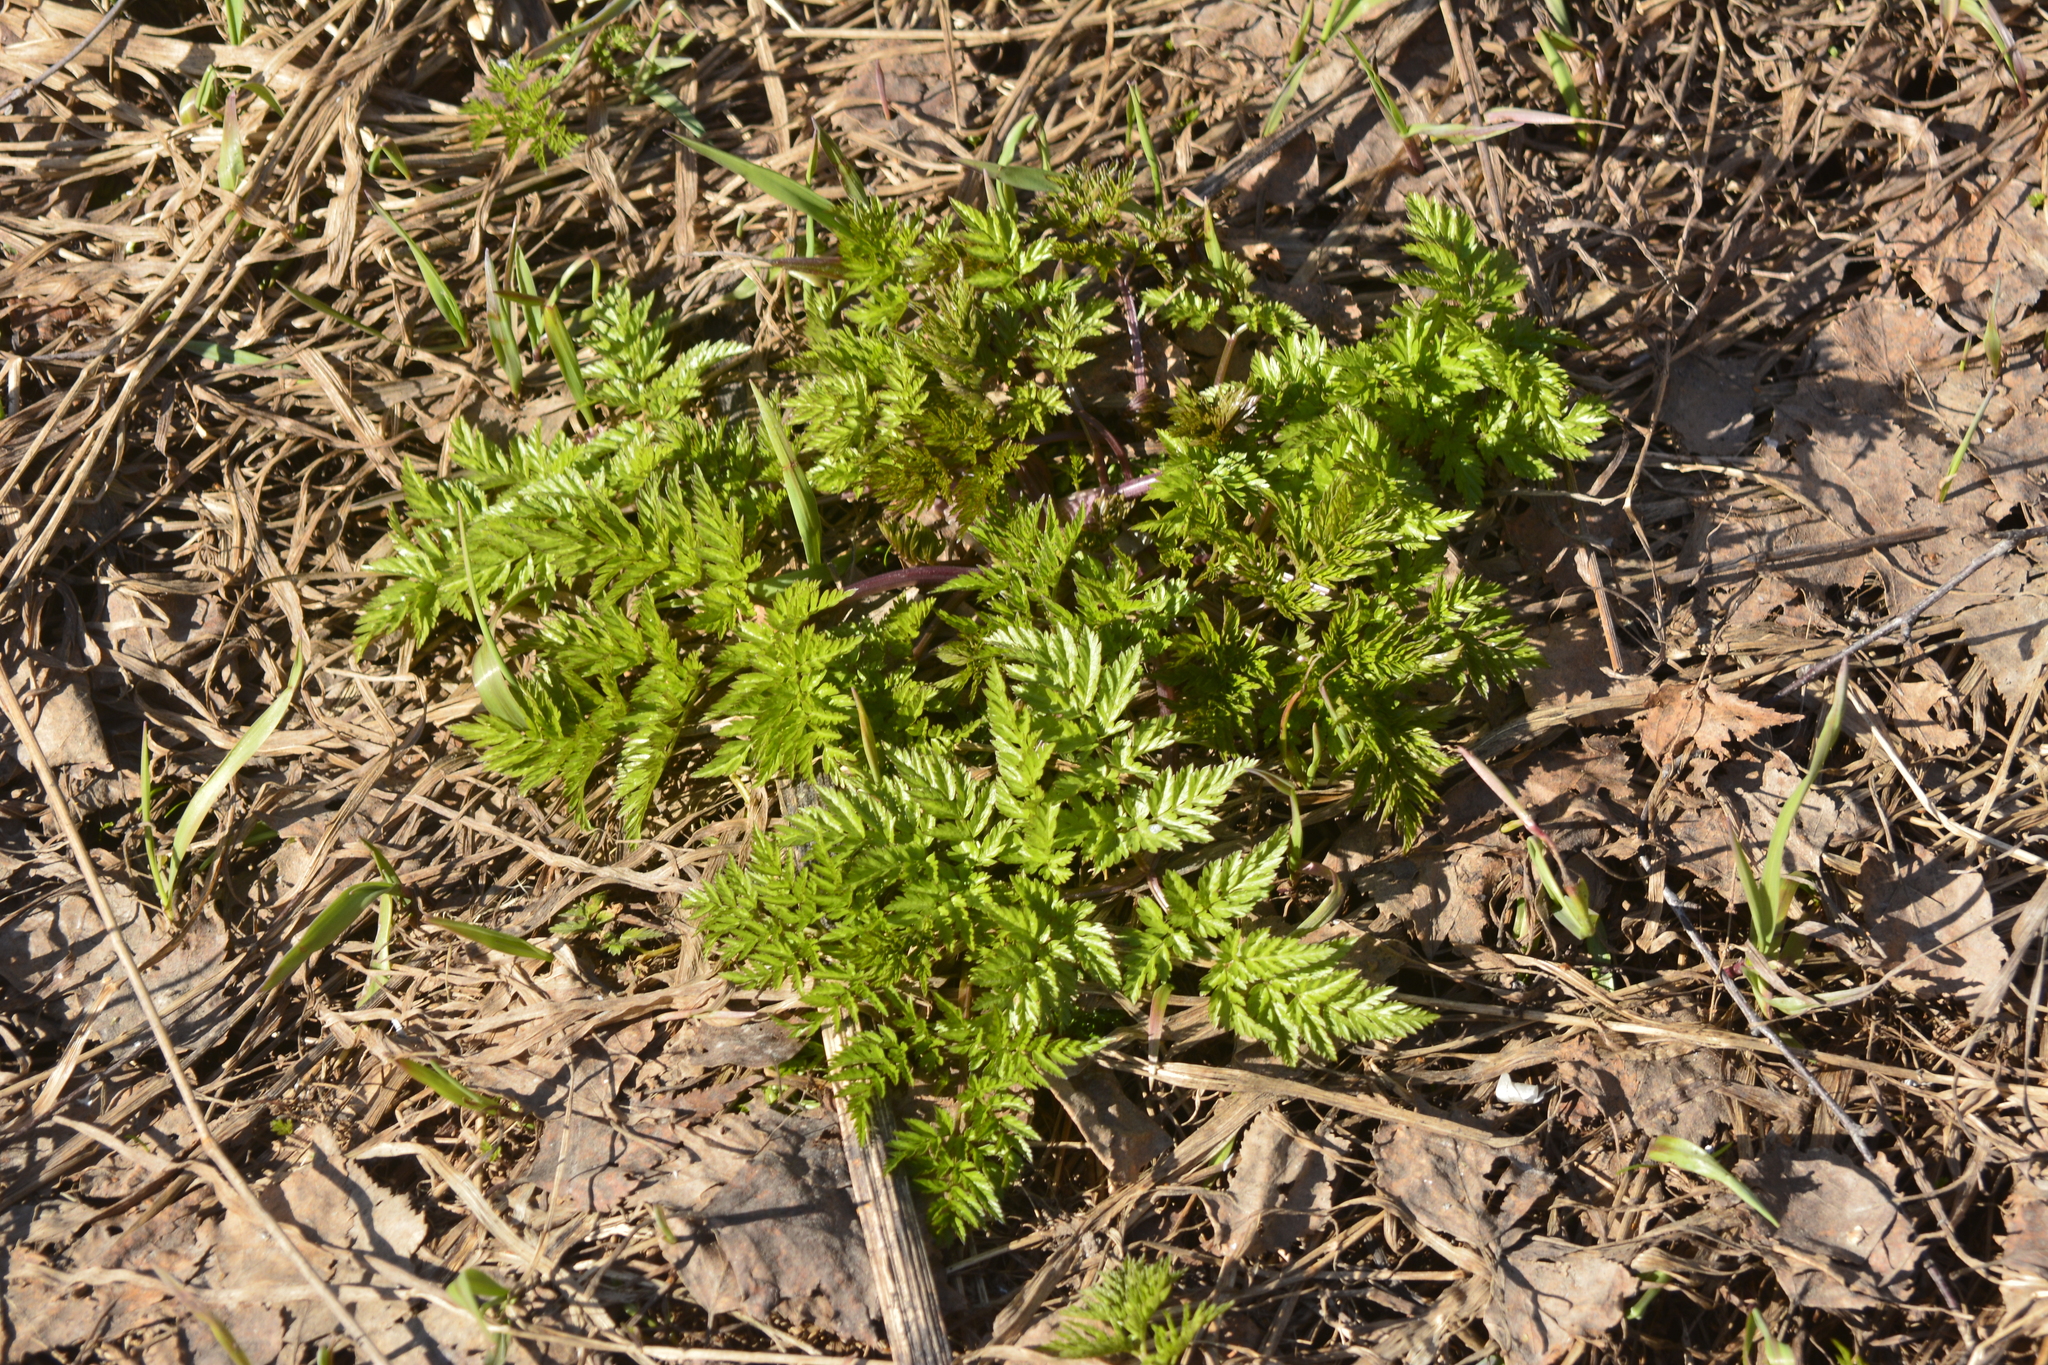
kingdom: Plantae
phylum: Tracheophyta
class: Magnoliopsida
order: Apiales
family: Apiaceae
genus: Anthriscus
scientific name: Anthriscus sylvestris
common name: Cow parsley
